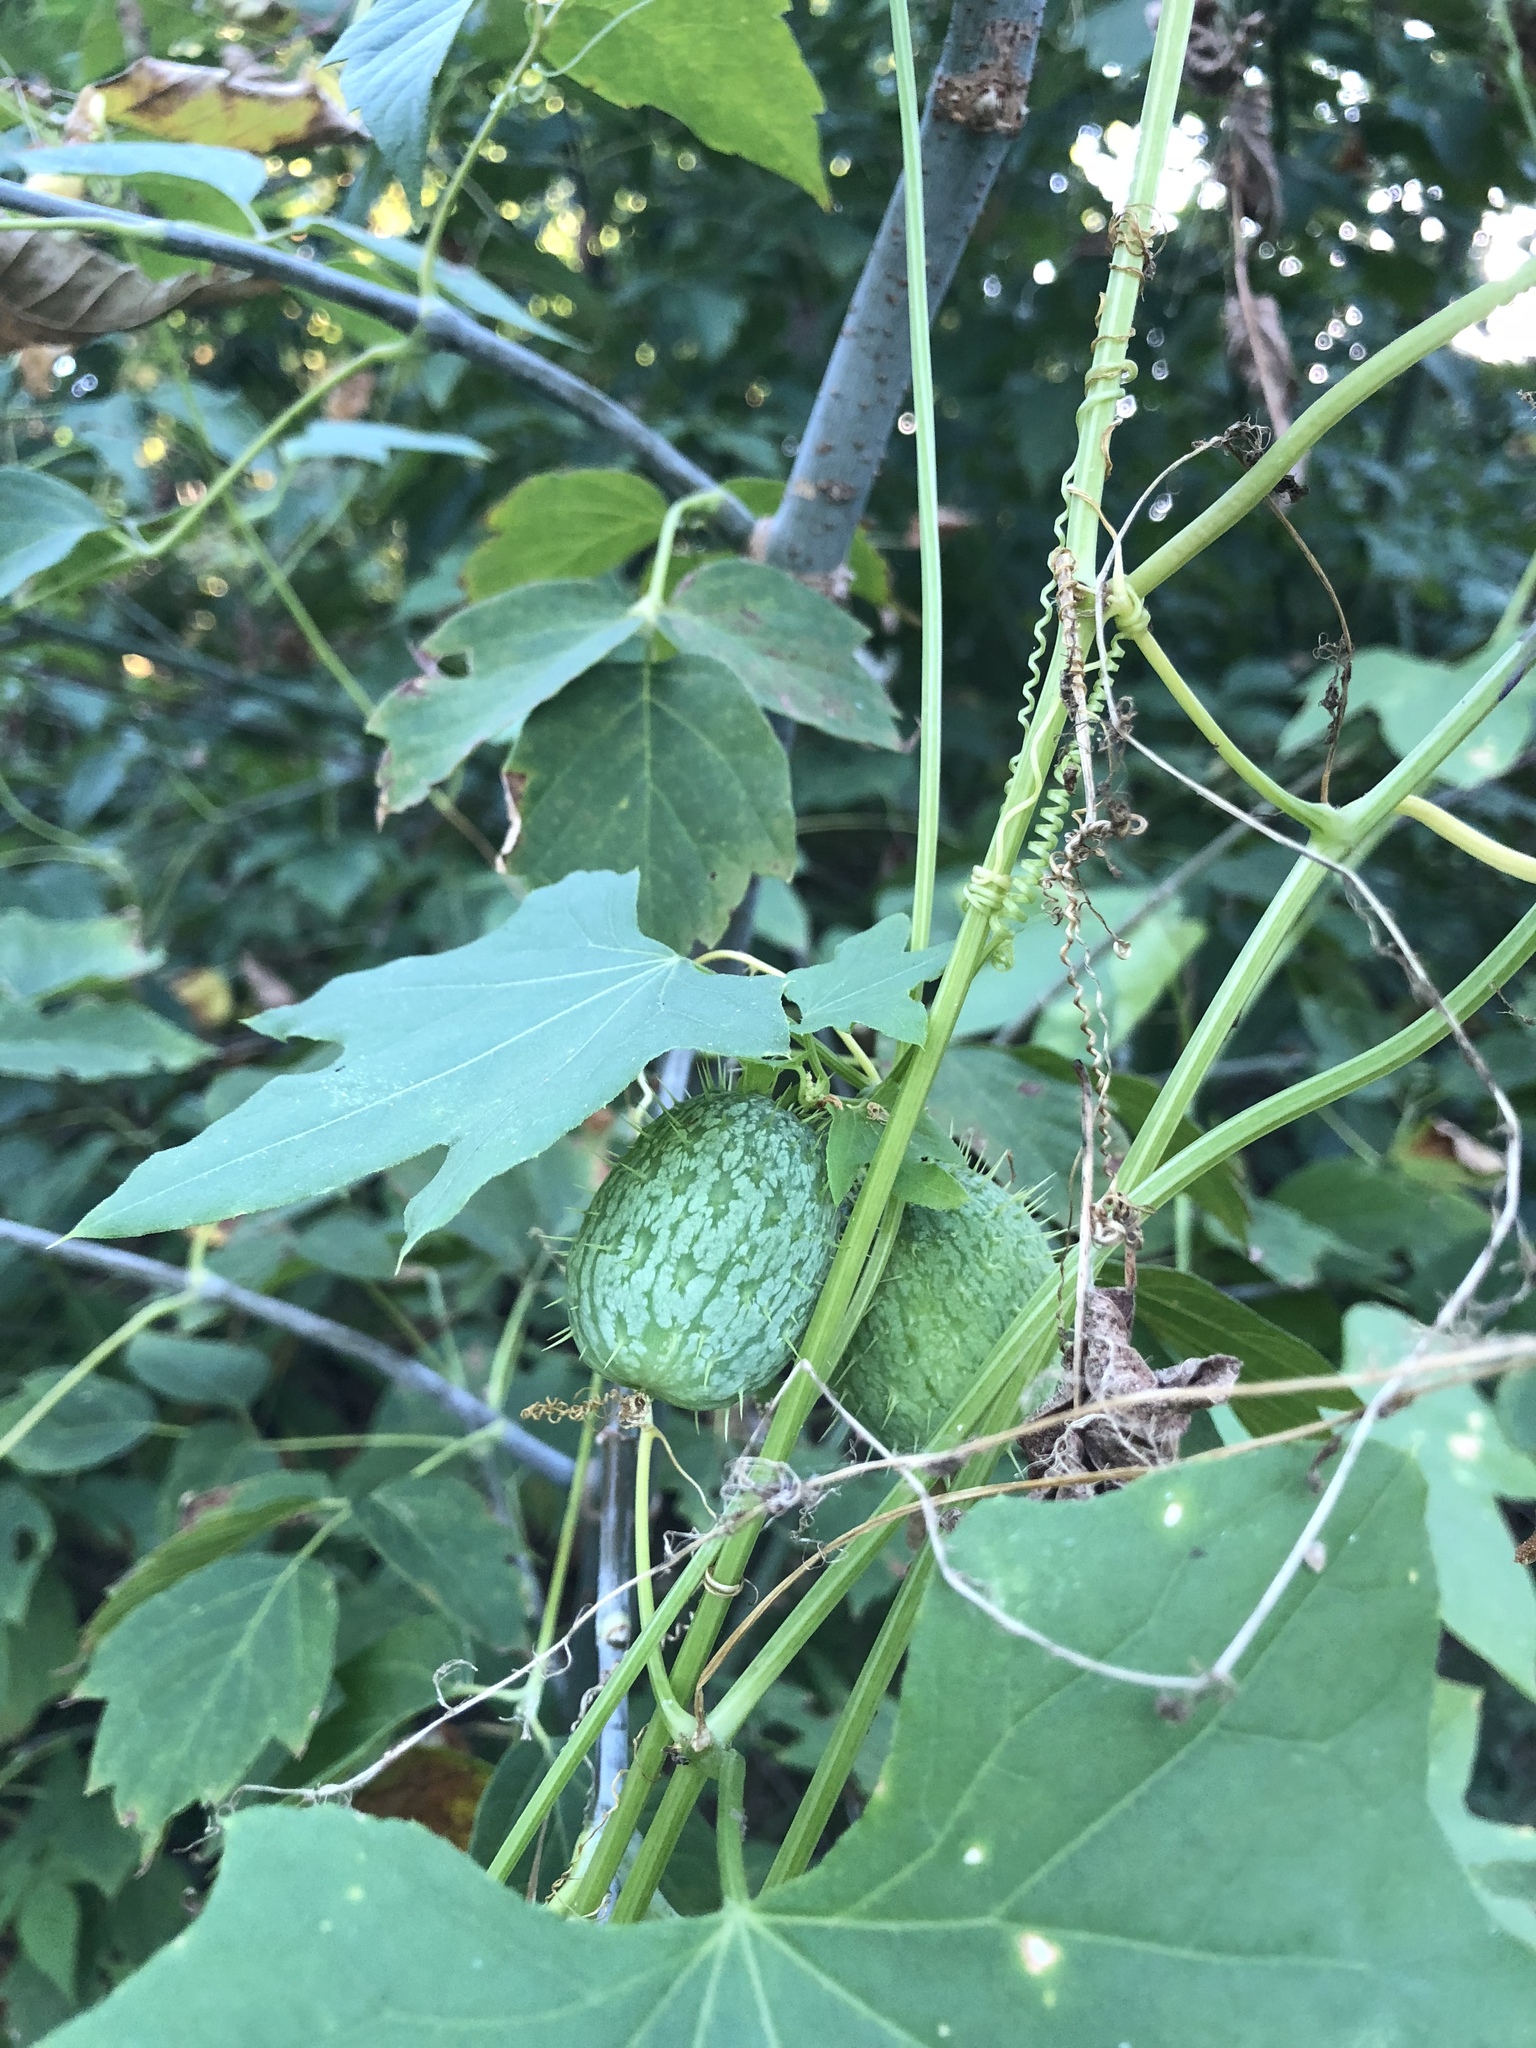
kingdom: Plantae
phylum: Tracheophyta
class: Magnoliopsida
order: Cucurbitales
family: Cucurbitaceae
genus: Echinocystis
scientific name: Echinocystis lobata
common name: Wild cucumber
